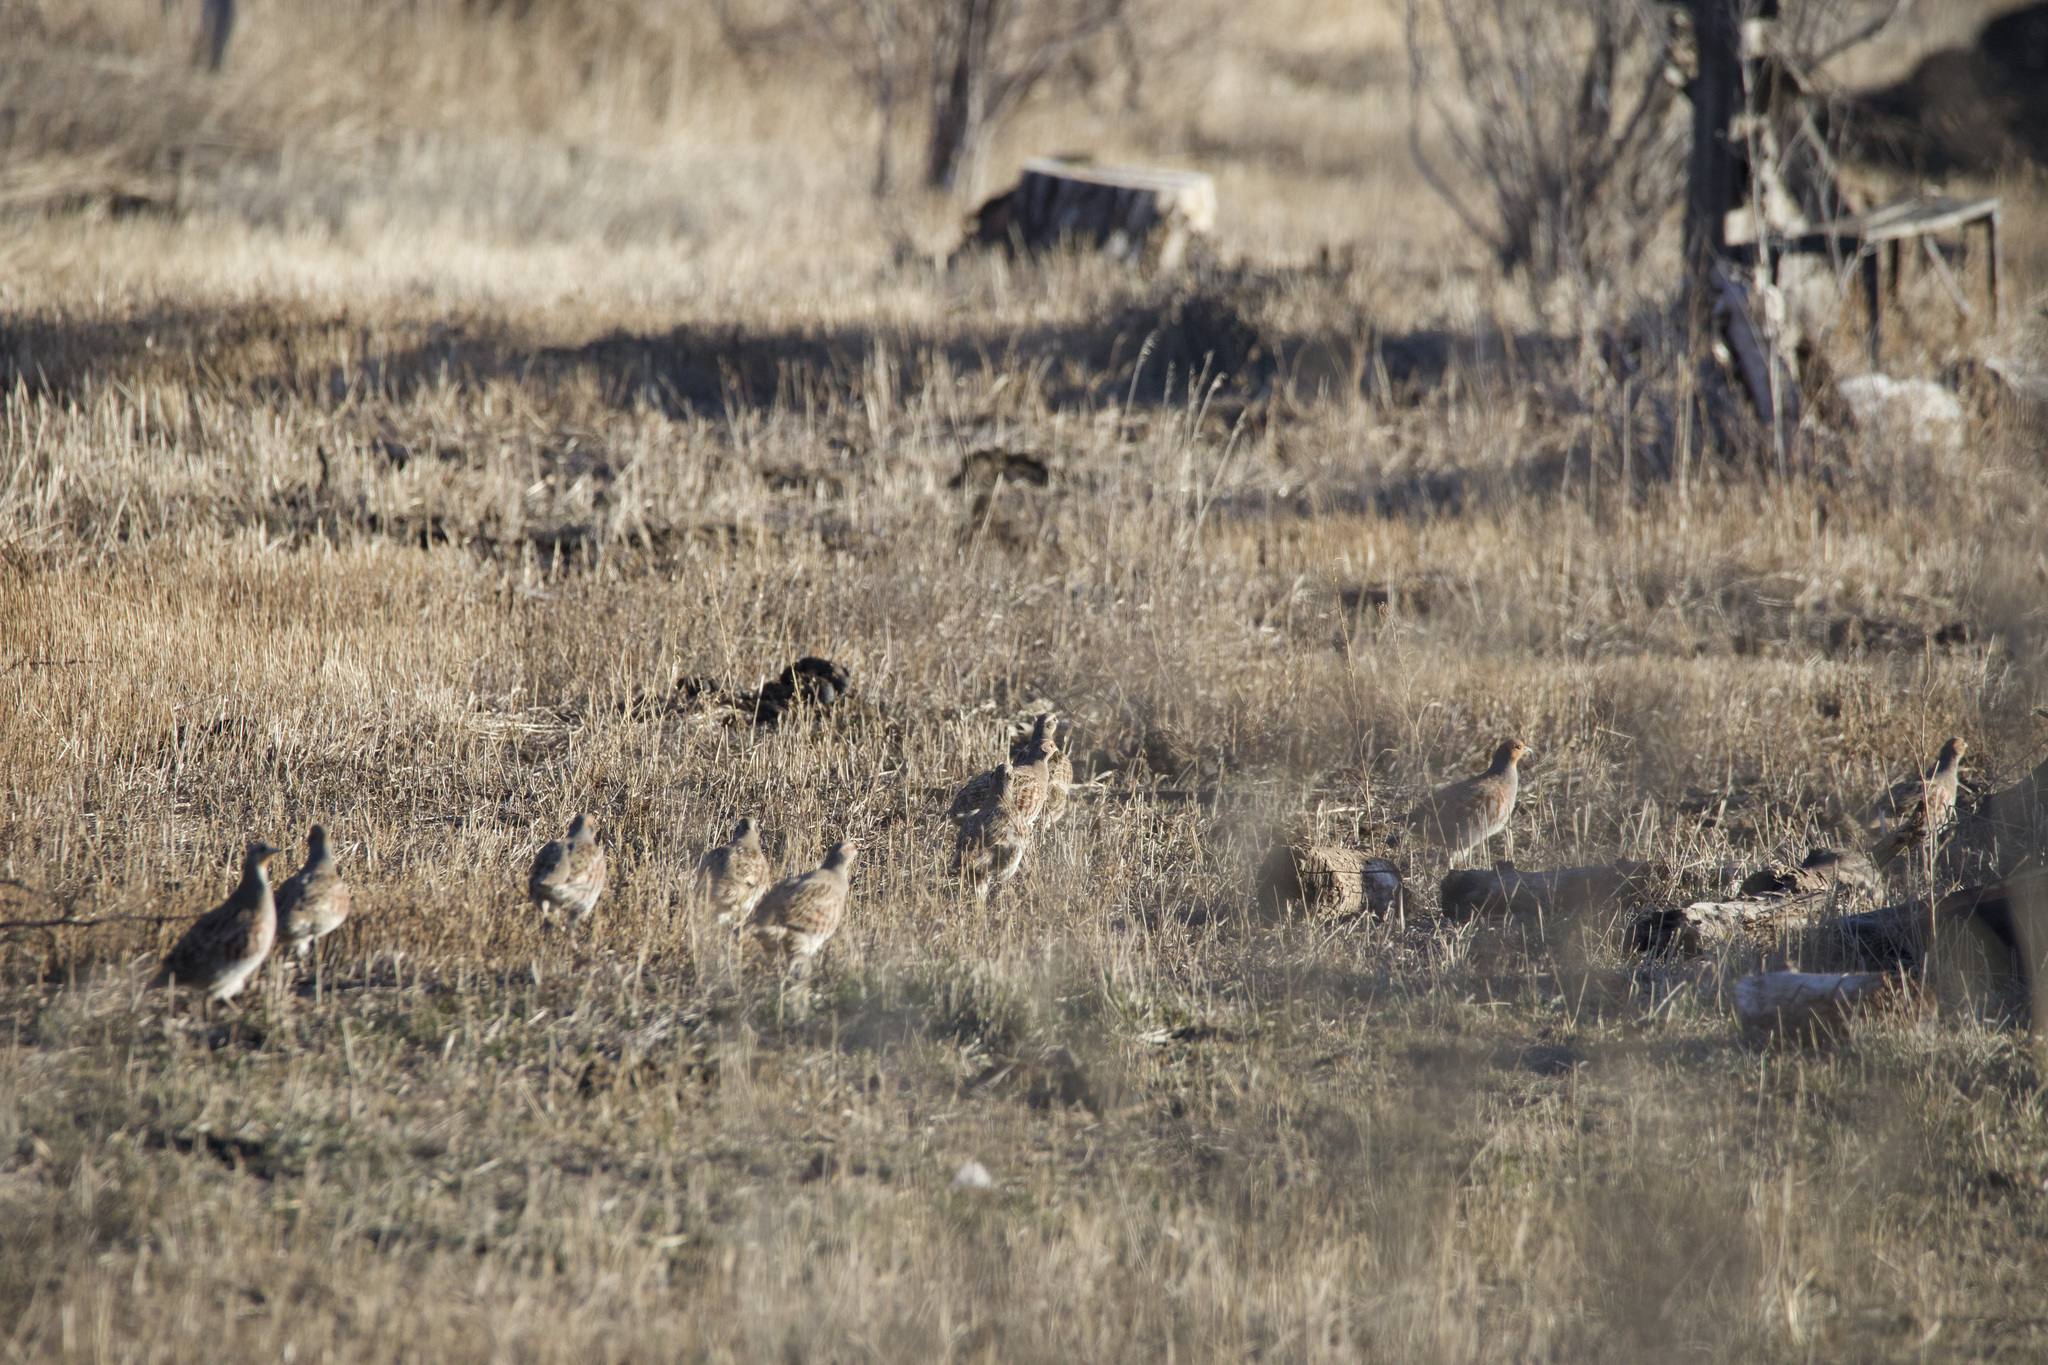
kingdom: Animalia
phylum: Chordata
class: Aves
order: Galliformes
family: Phasianidae
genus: Perdix
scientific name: Perdix perdix
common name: Grey partridge
